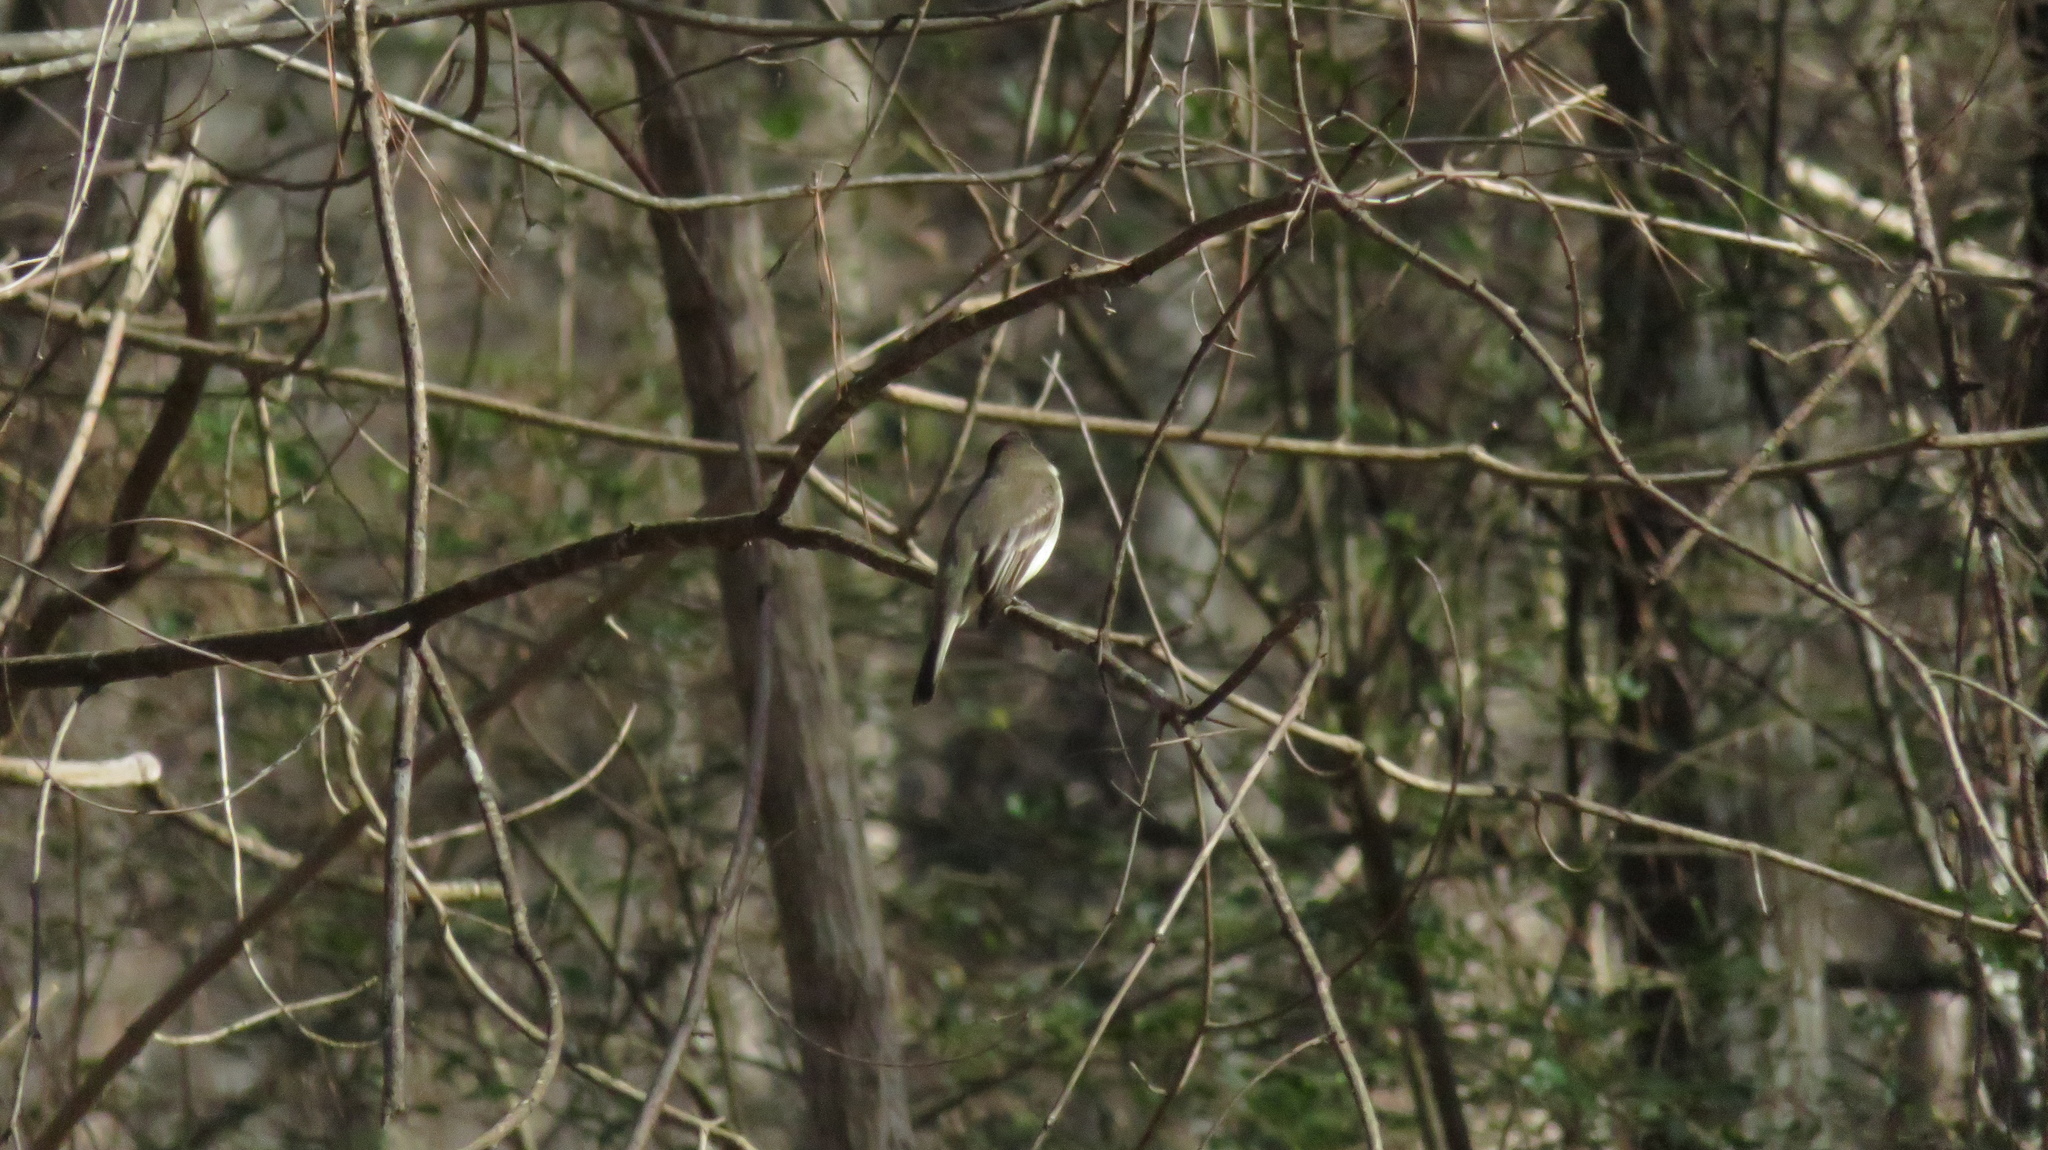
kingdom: Animalia
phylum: Chordata
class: Aves
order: Passeriformes
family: Tyrannidae
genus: Sayornis
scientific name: Sayornis phoebe
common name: Eastern phoebe
